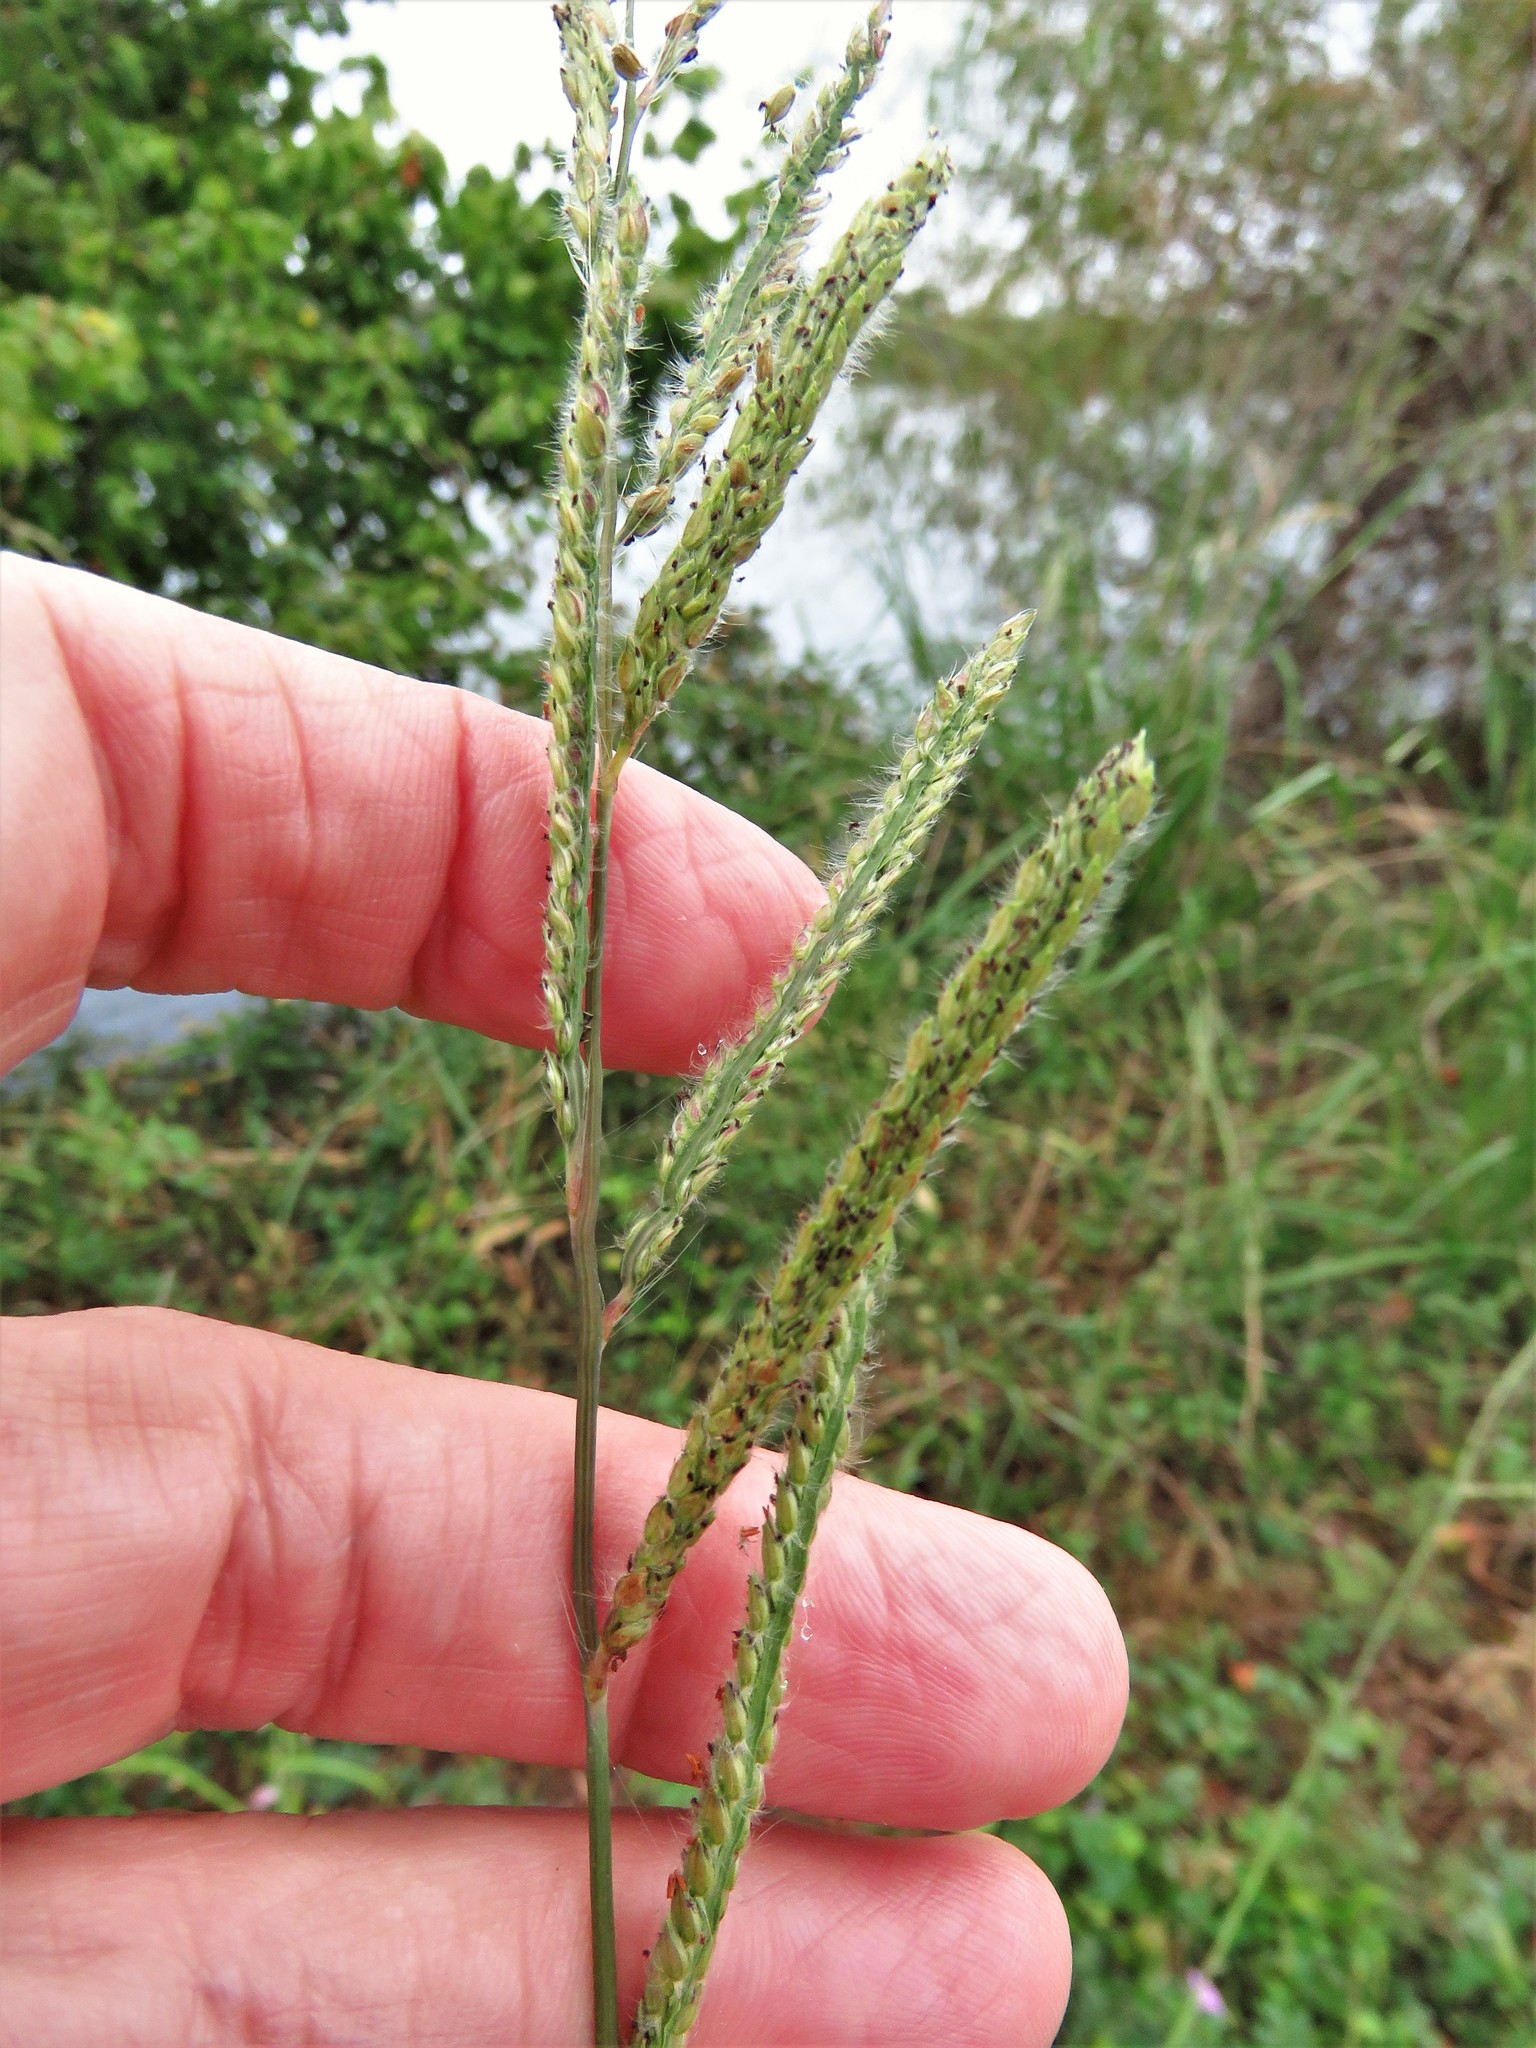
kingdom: Plantae
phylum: Tracheophyta
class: Liliopsida
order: Poales
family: Poaceae
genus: Paspalum
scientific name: Paspalum urvillei
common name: Vasey's grass
